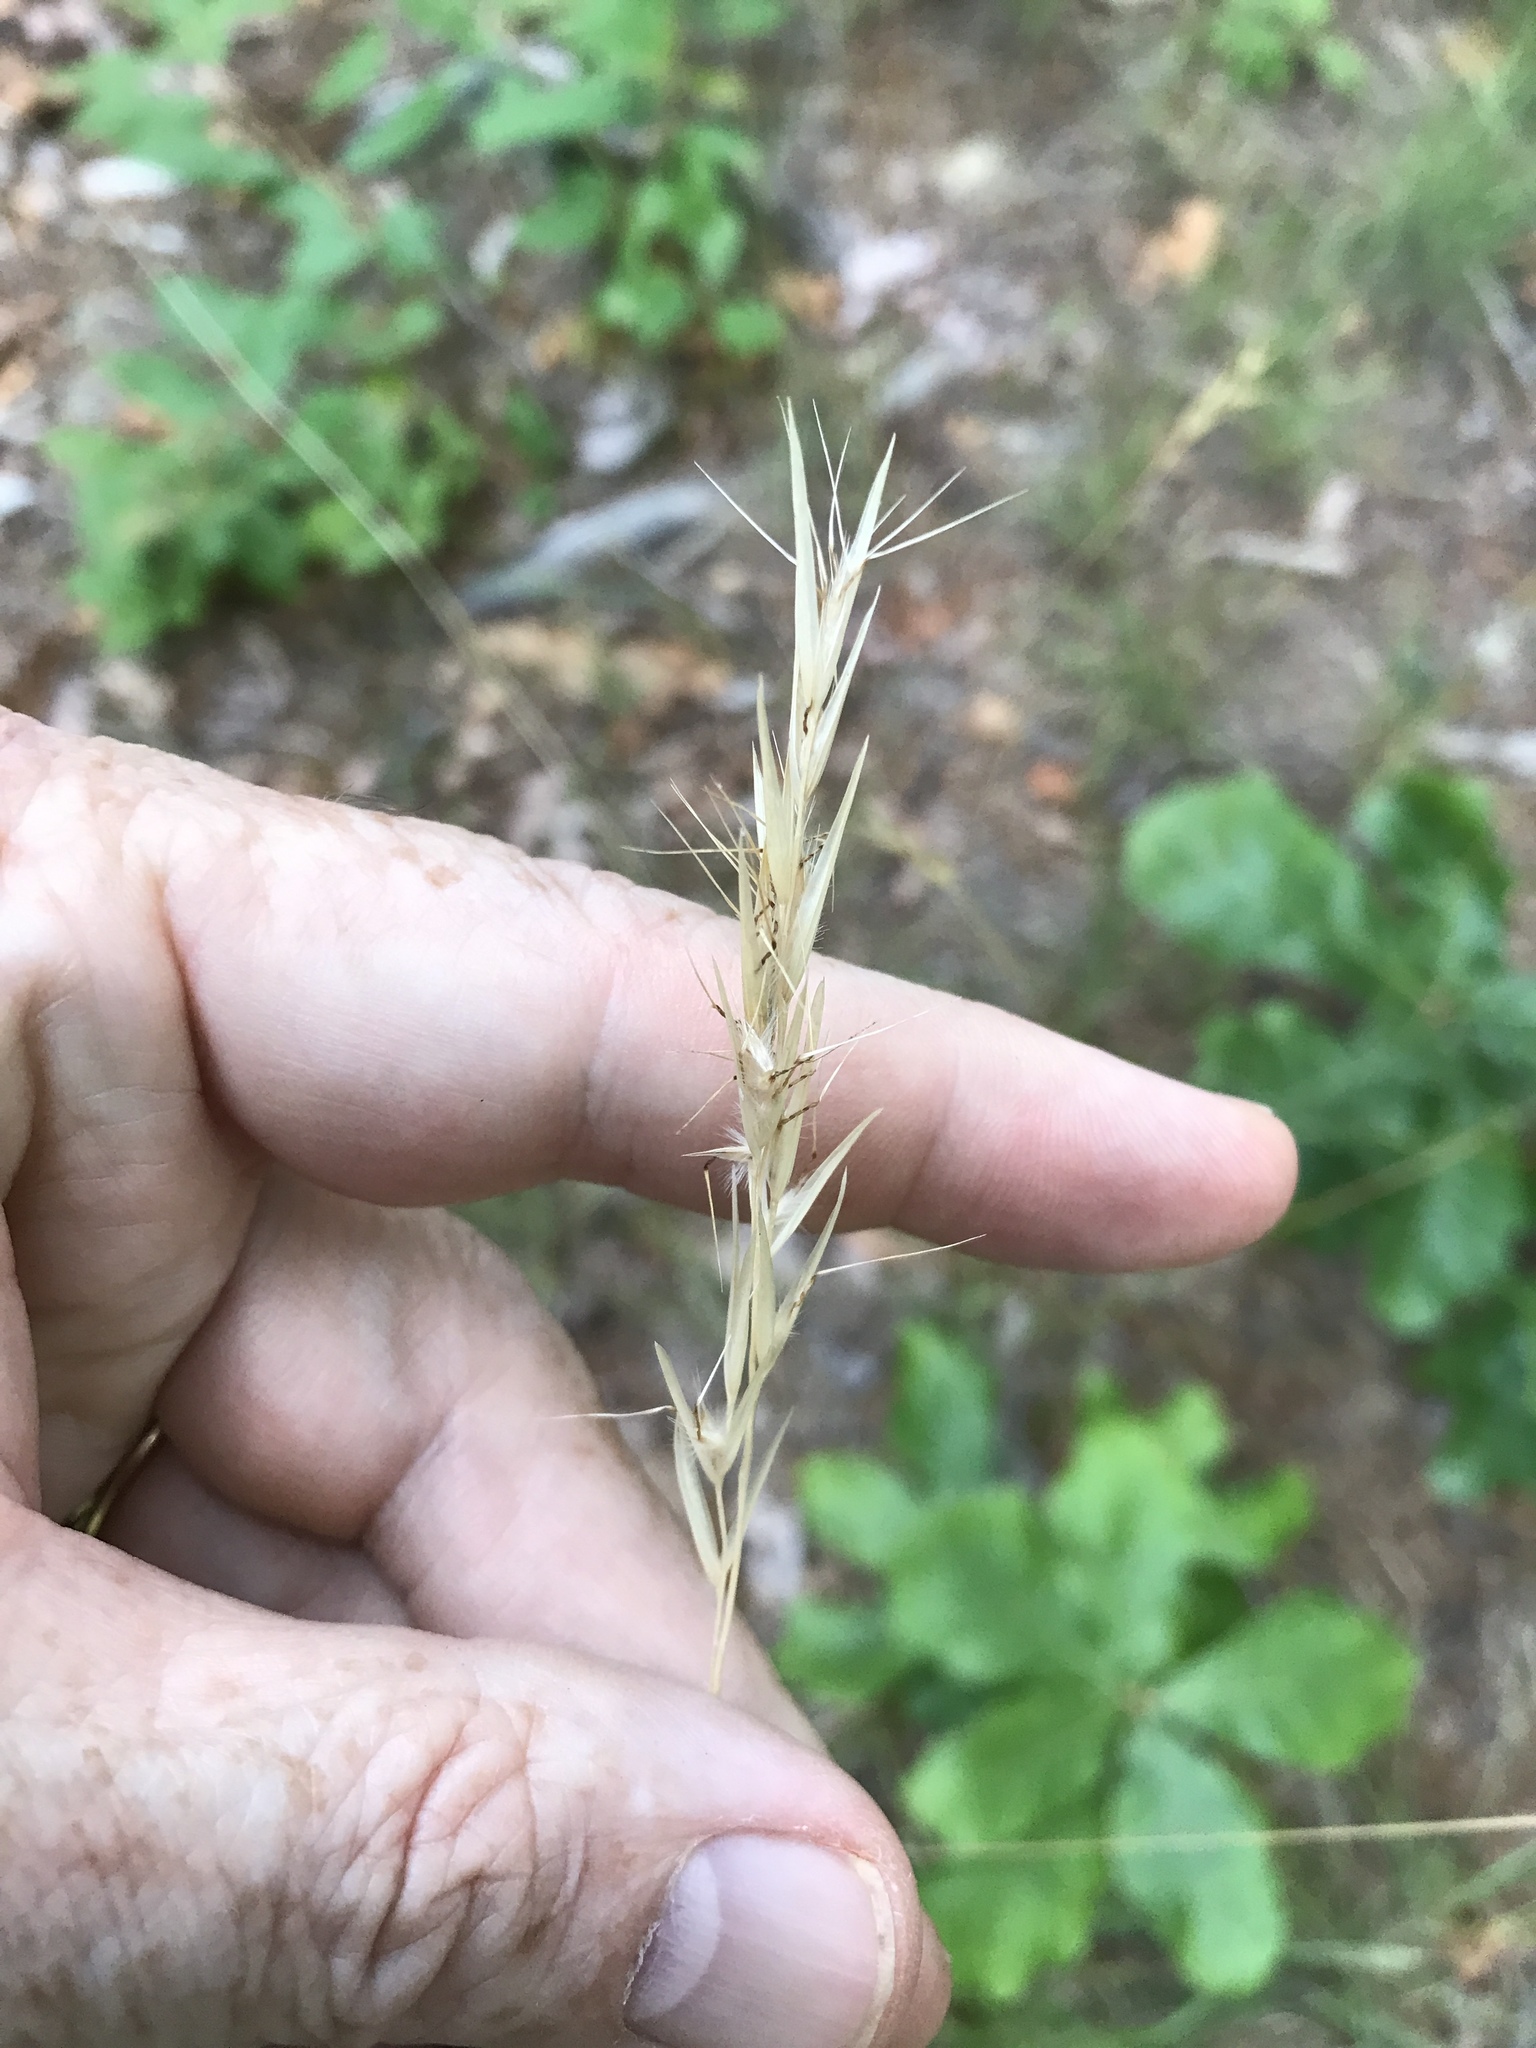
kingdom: Plantae
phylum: Tracheophyta
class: Liliopsida
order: Poales
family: Poaceae
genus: Danthonia
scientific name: Danthonia sericea
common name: Downy danthonia
